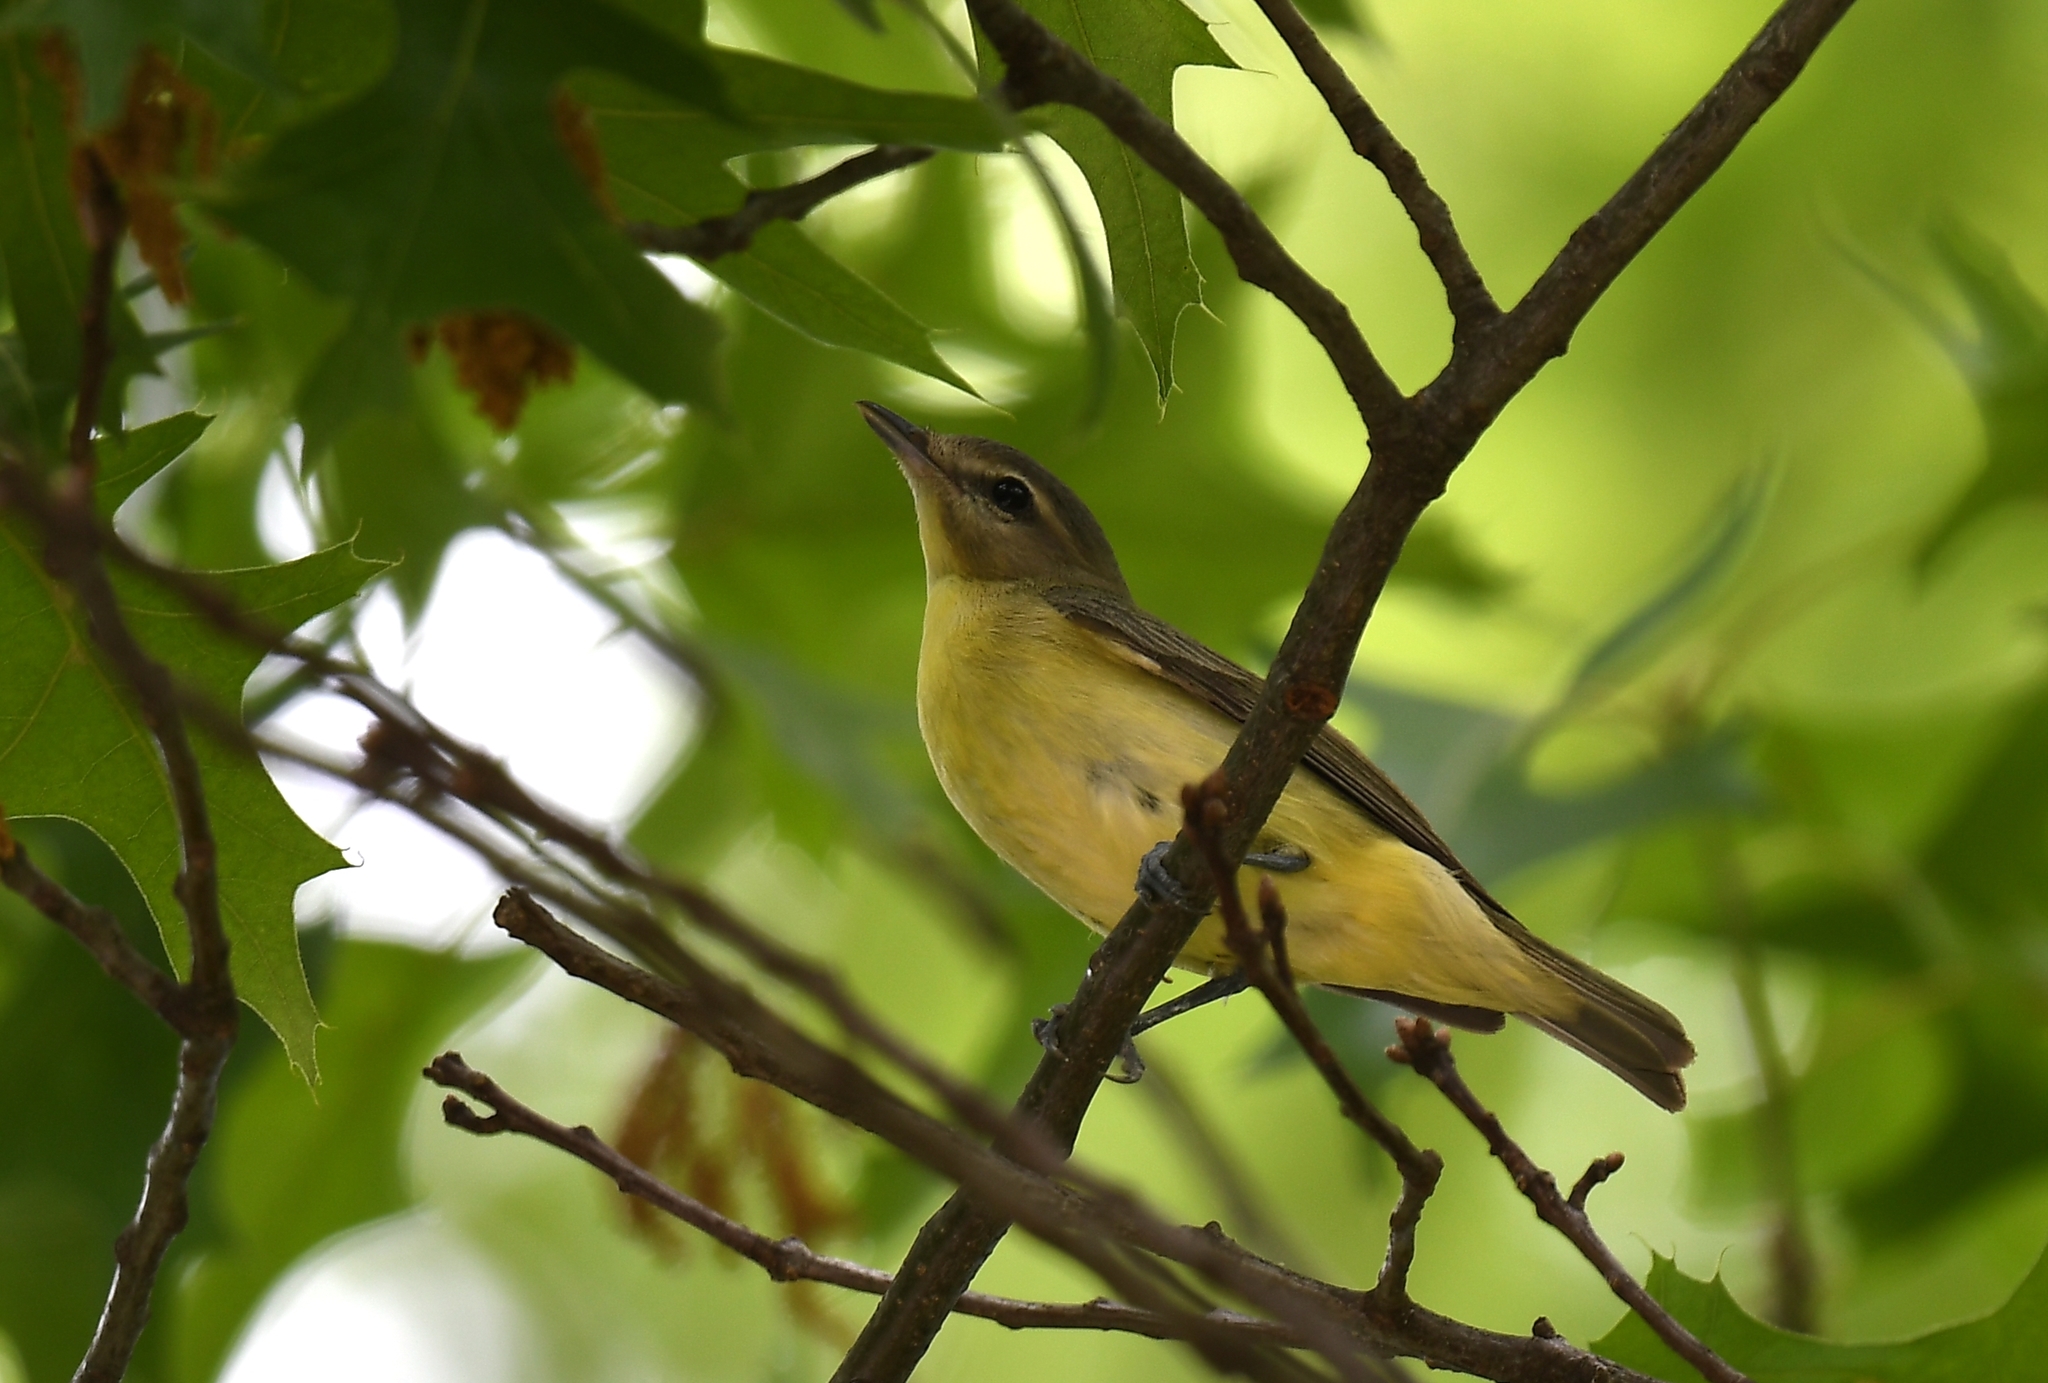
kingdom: Animalia
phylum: Chordata
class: Aves
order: Passeriformes
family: Vireonidae
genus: Vireo
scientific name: Vireo philadelphicus
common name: Philadelphia vireo
